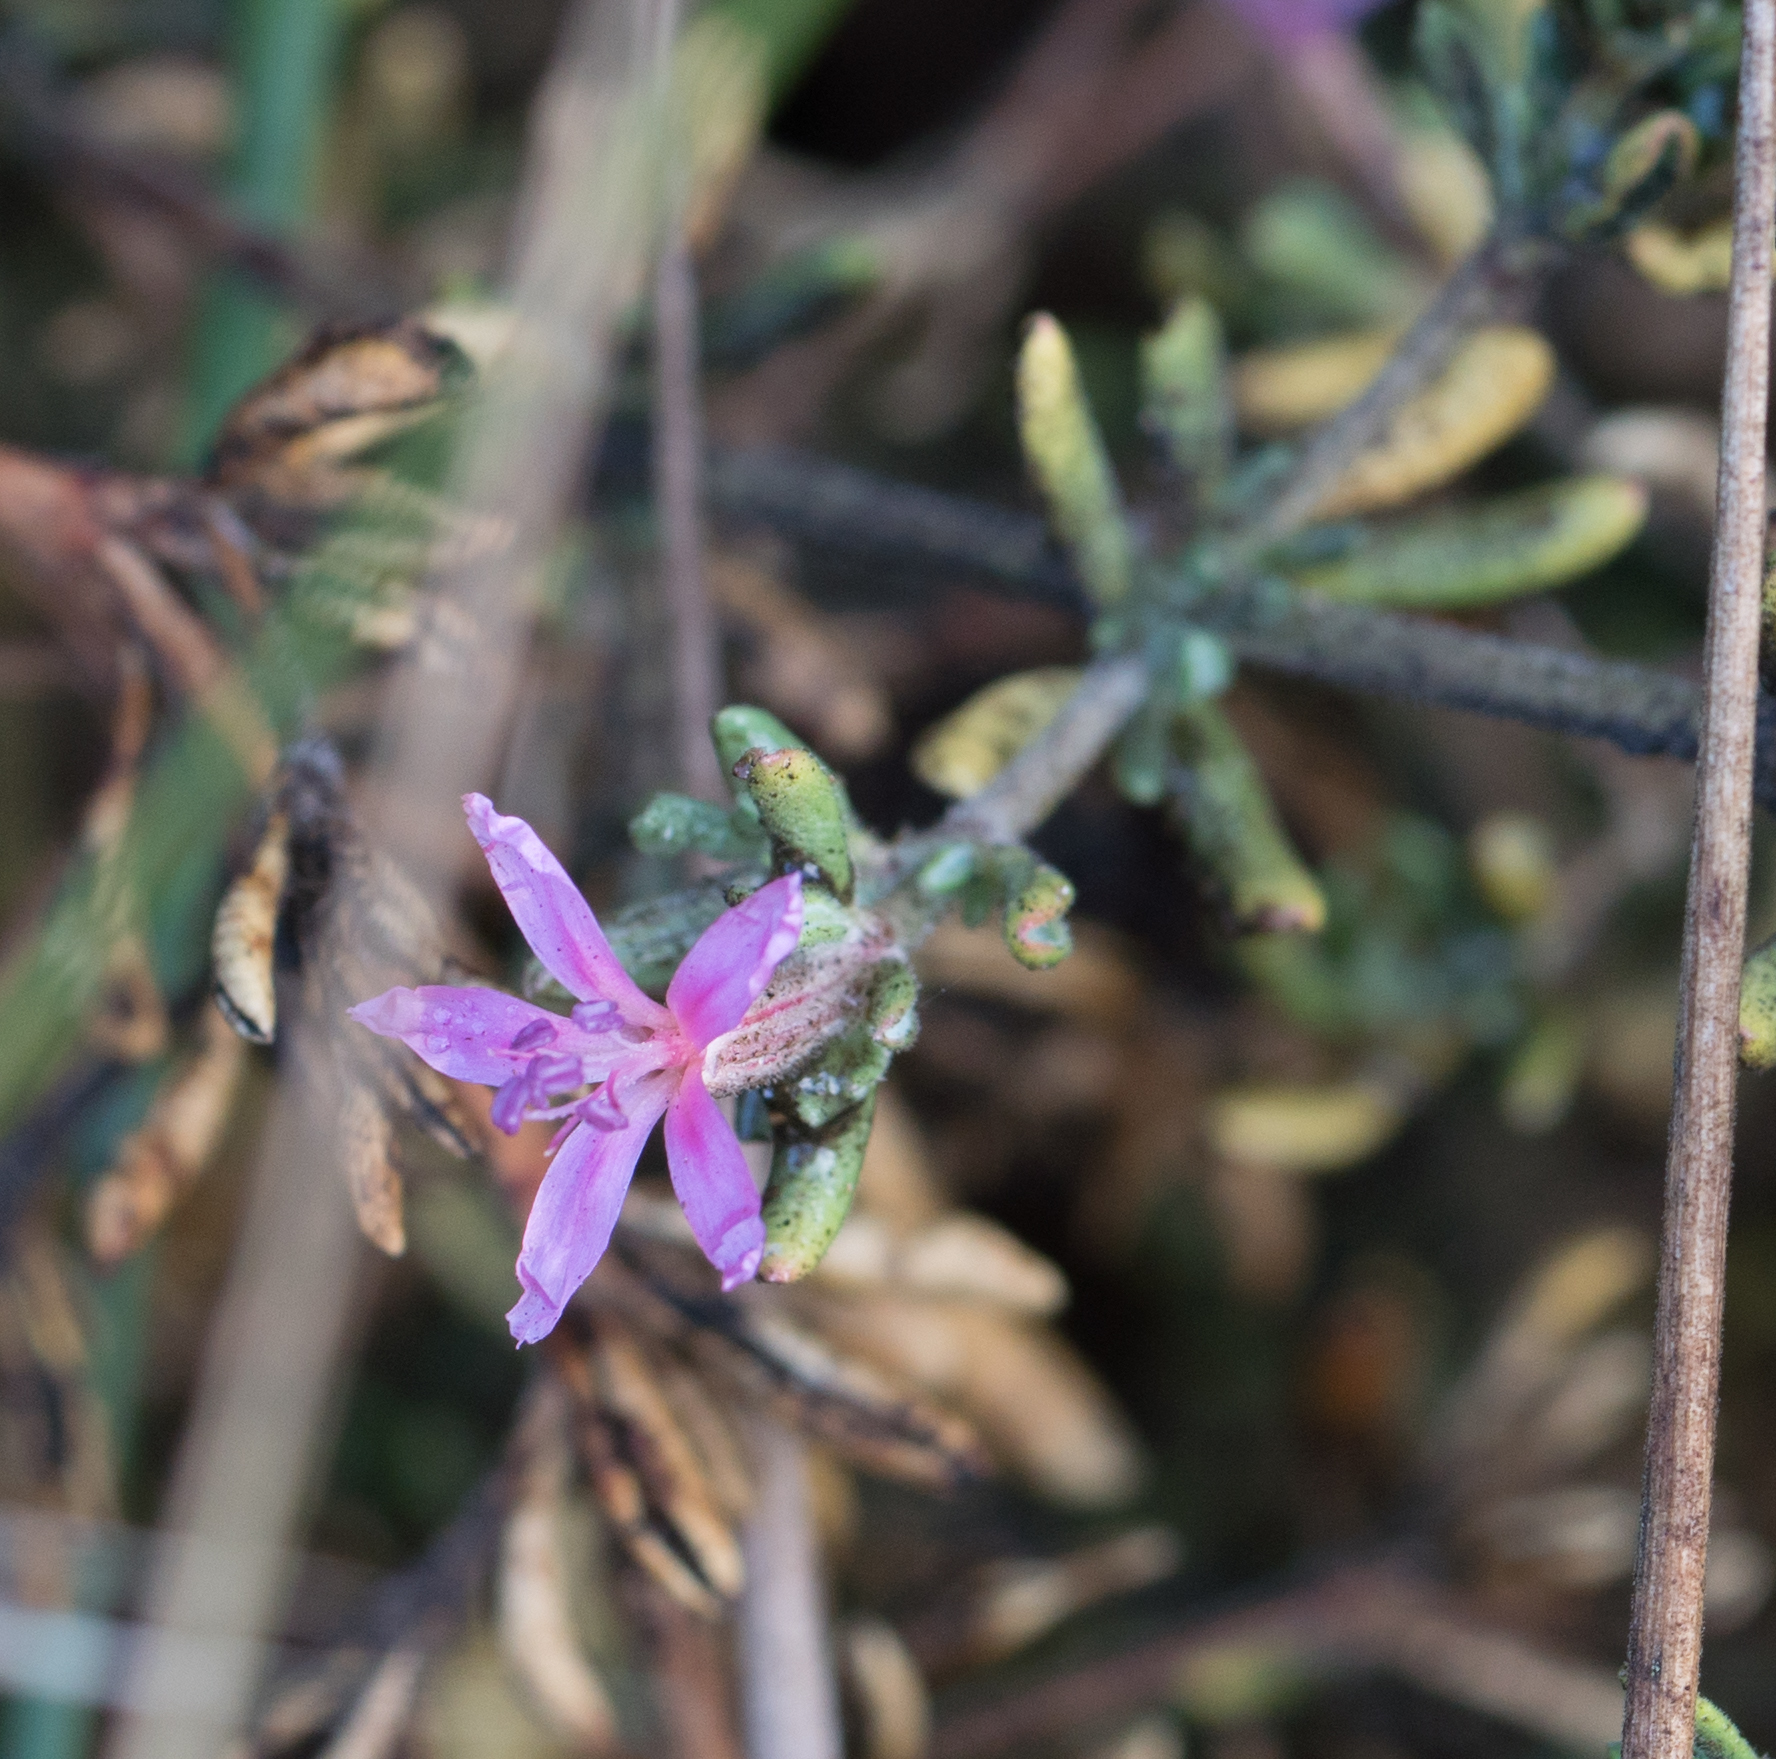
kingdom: Plantae
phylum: Tracheophyta
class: Magnoliopsida
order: Caryophyllales
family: Frankeniaceae
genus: Frankenia
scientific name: Frankenia salina
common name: Alkali seaheath
